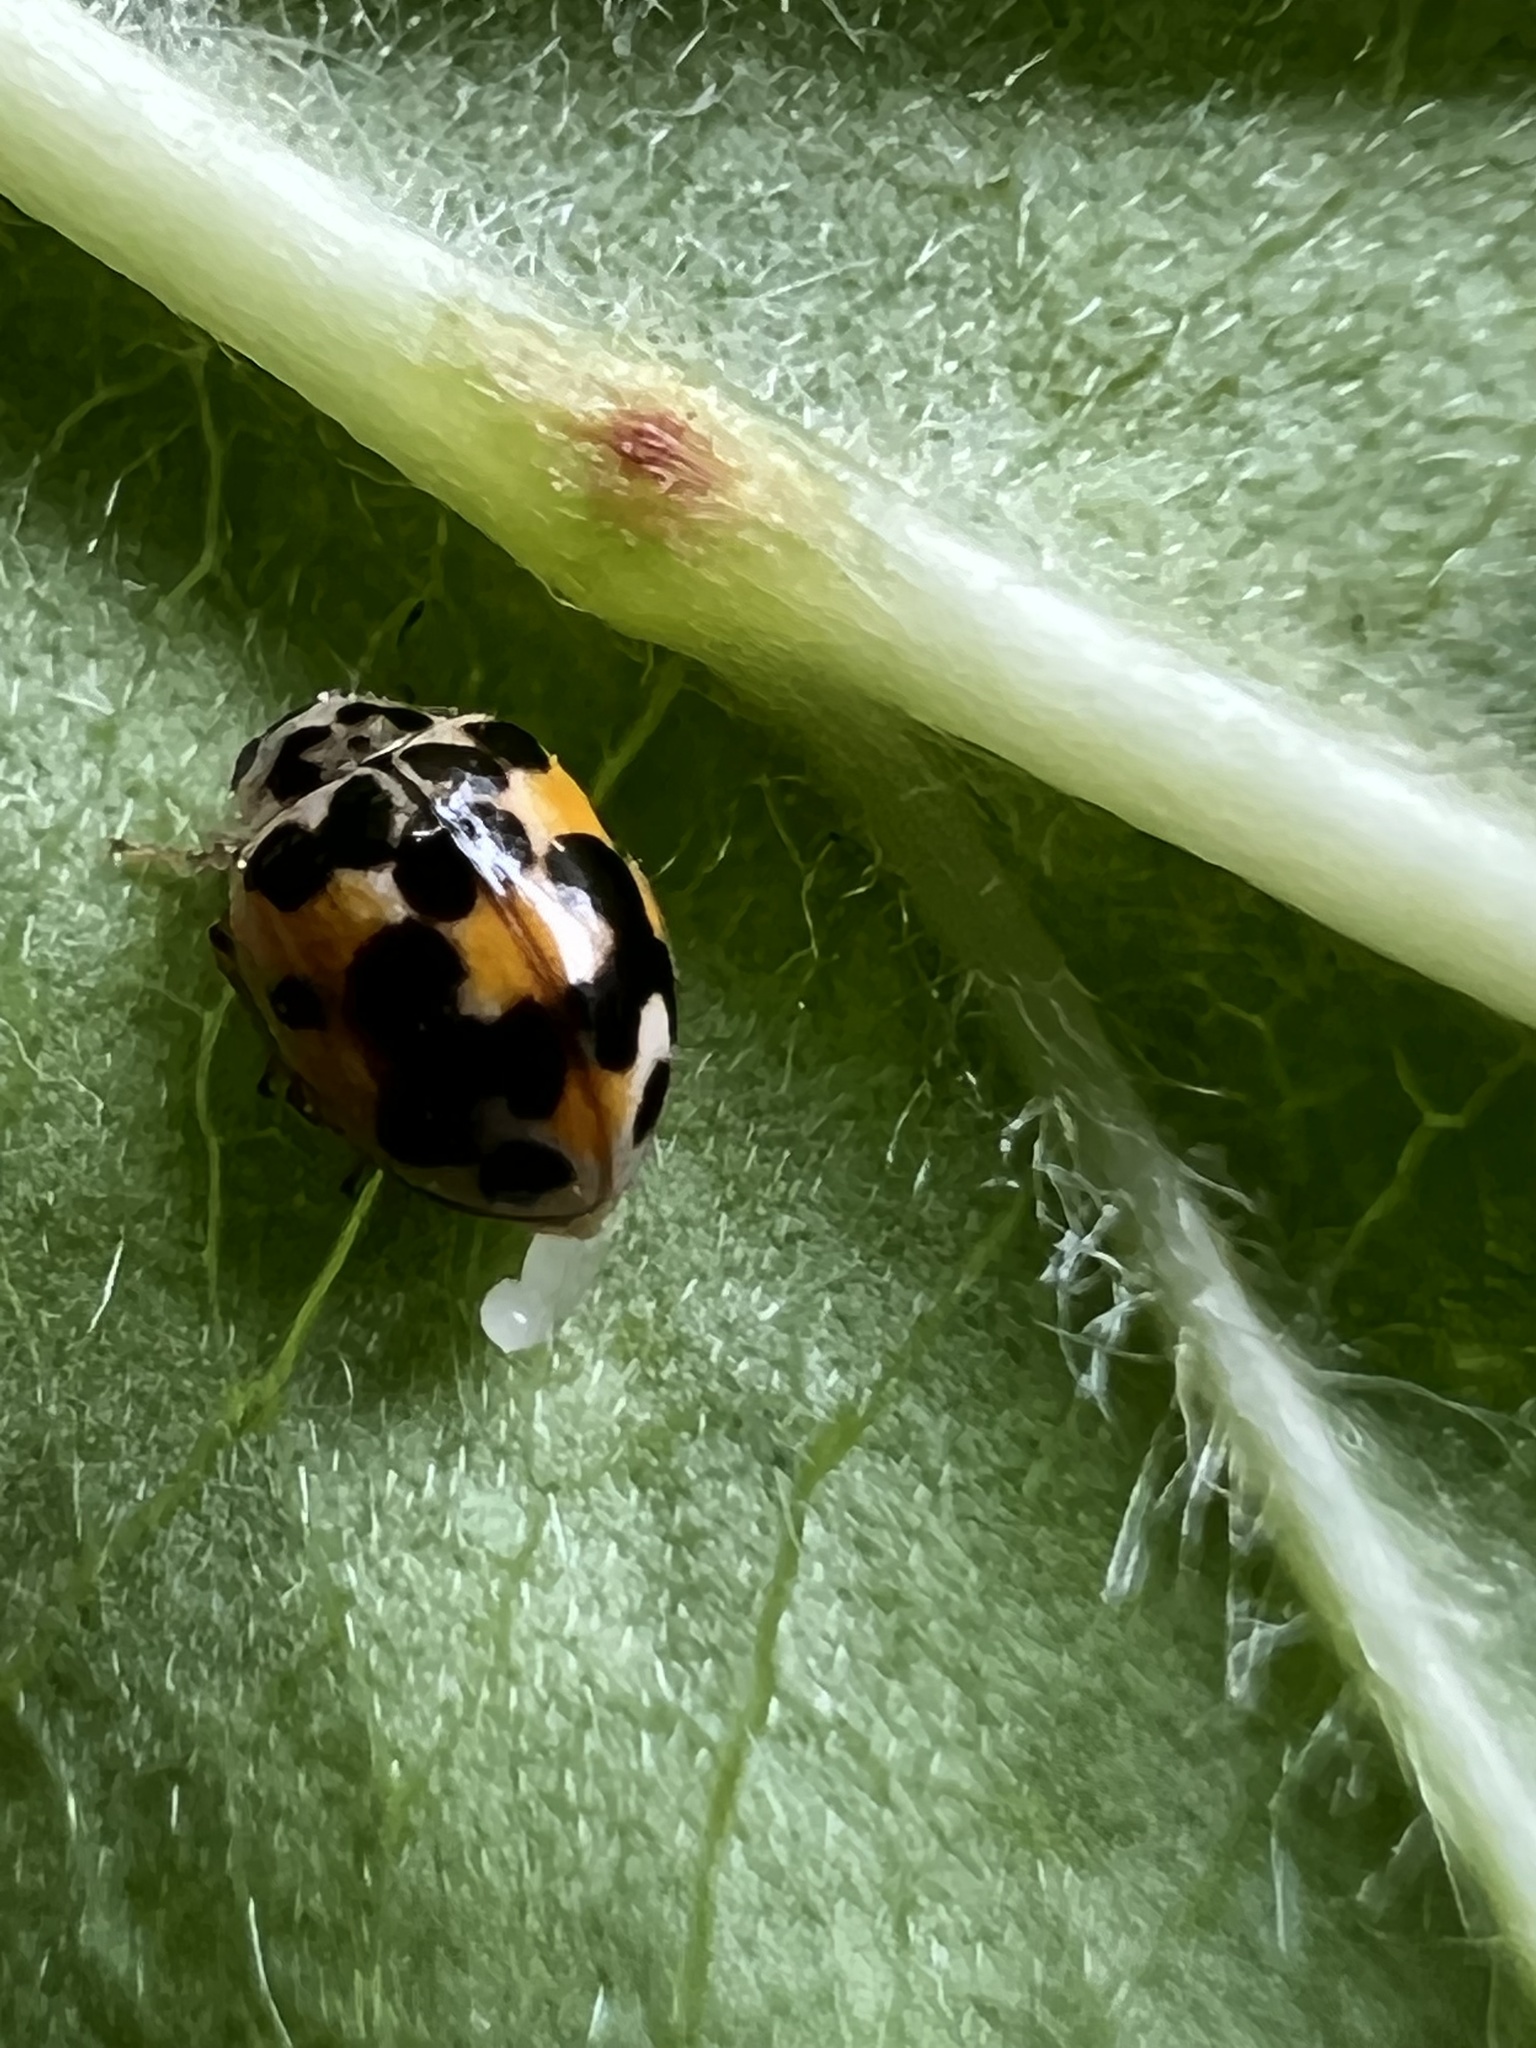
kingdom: Animalia
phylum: Arthropoda
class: Insecta
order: Coleoptera
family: Coccinellidae
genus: Psyllobora
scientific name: Psyllobora vigintimaculata
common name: Ladybird beetle
